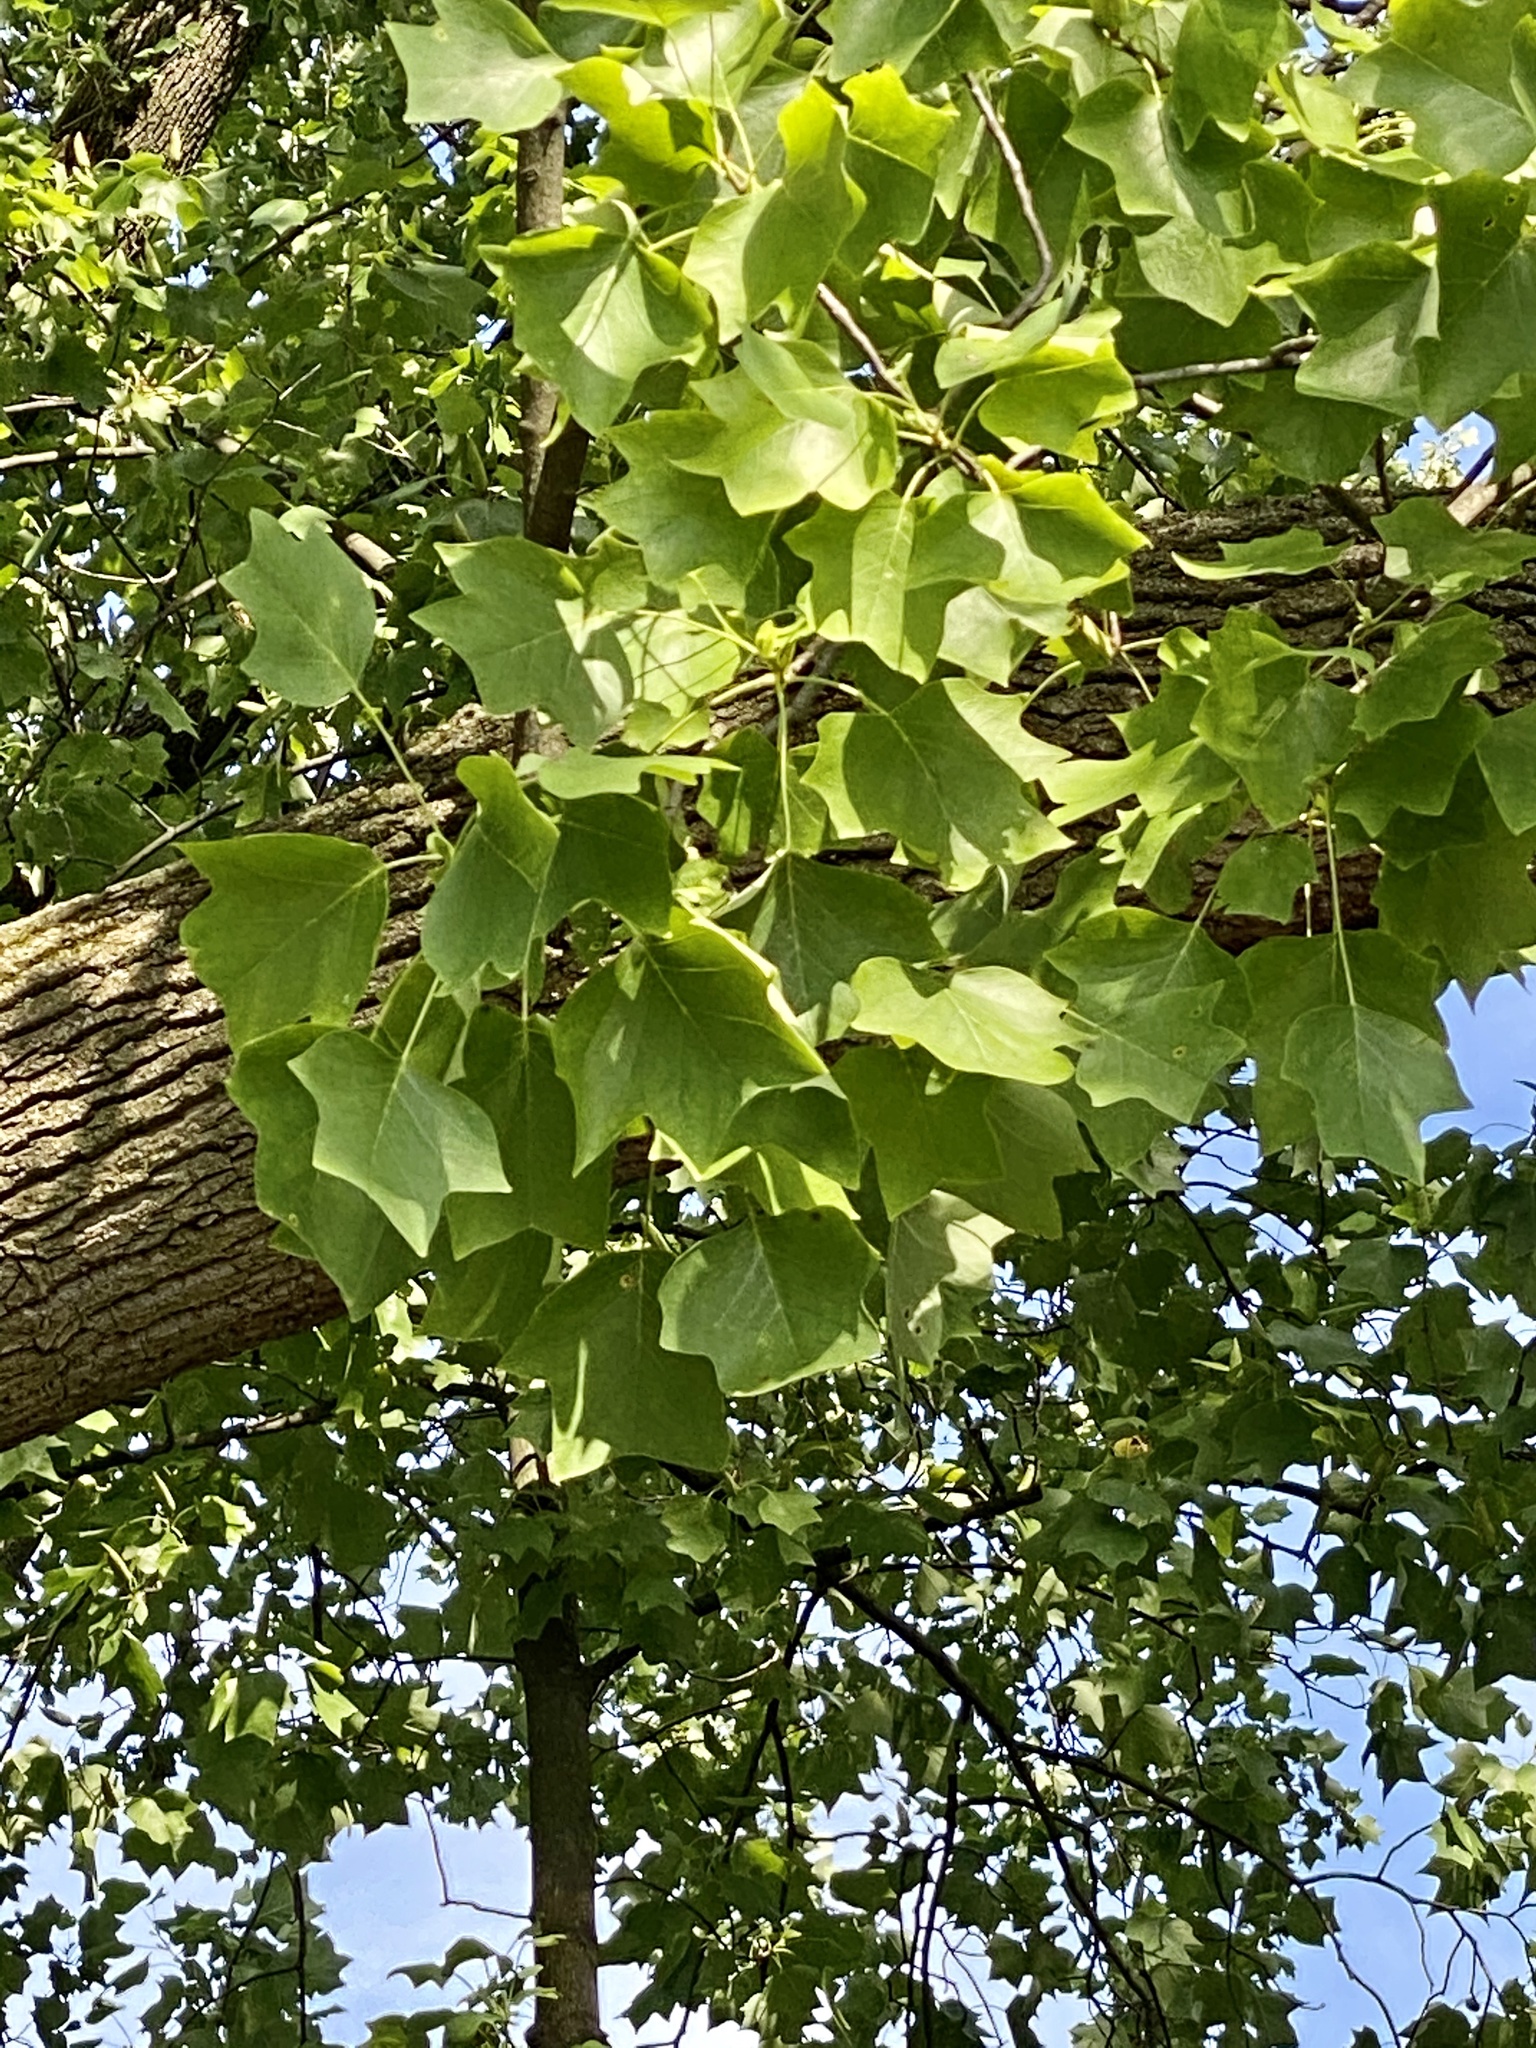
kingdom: Plantae
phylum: Tracheophyta
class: Magnoliopsida
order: Magnoliales
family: Magnoliaceae
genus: Liriodendron
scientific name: Liriodendron tulipifera
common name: Tulip tree
